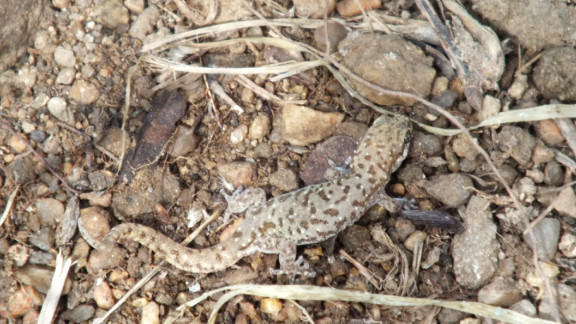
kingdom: Animalia
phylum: Chordata
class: Squamata
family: Gekkonidae
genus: Pachydactylus
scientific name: Pachydactylus punctatus
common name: Pointed thick-toed gecko
